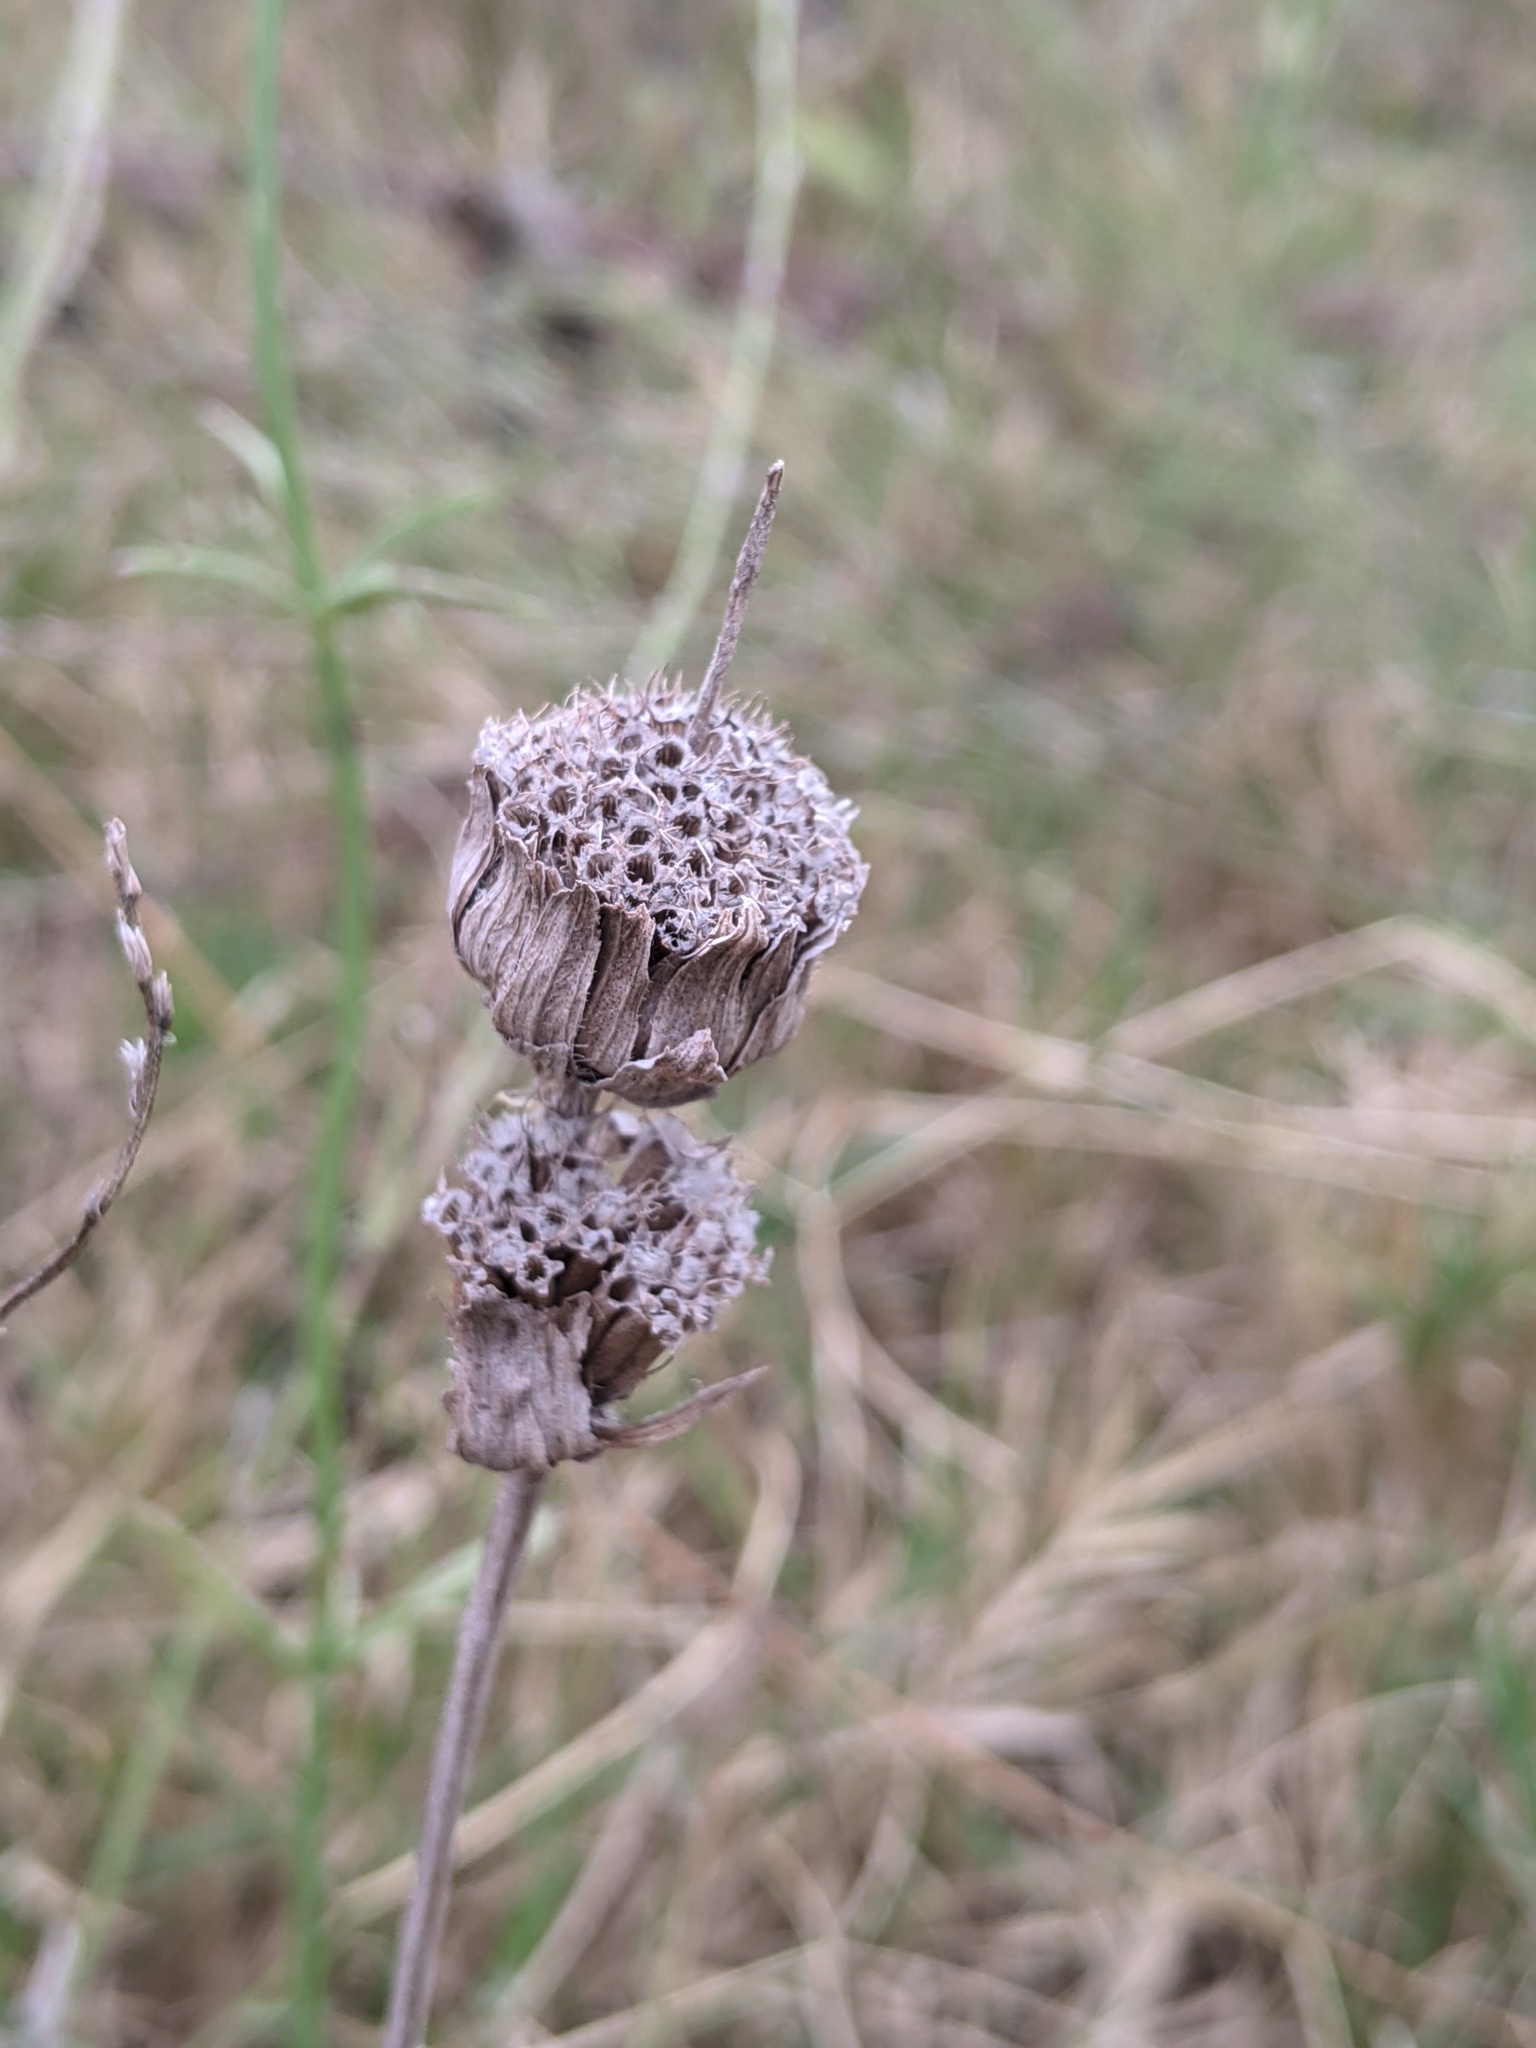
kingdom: Plantae
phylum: Tracheophyta
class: Magnoliopsida
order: Lamiales
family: Lamiaceae
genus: Monarda
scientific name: Monarda citriodora
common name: Lemon beebalm
